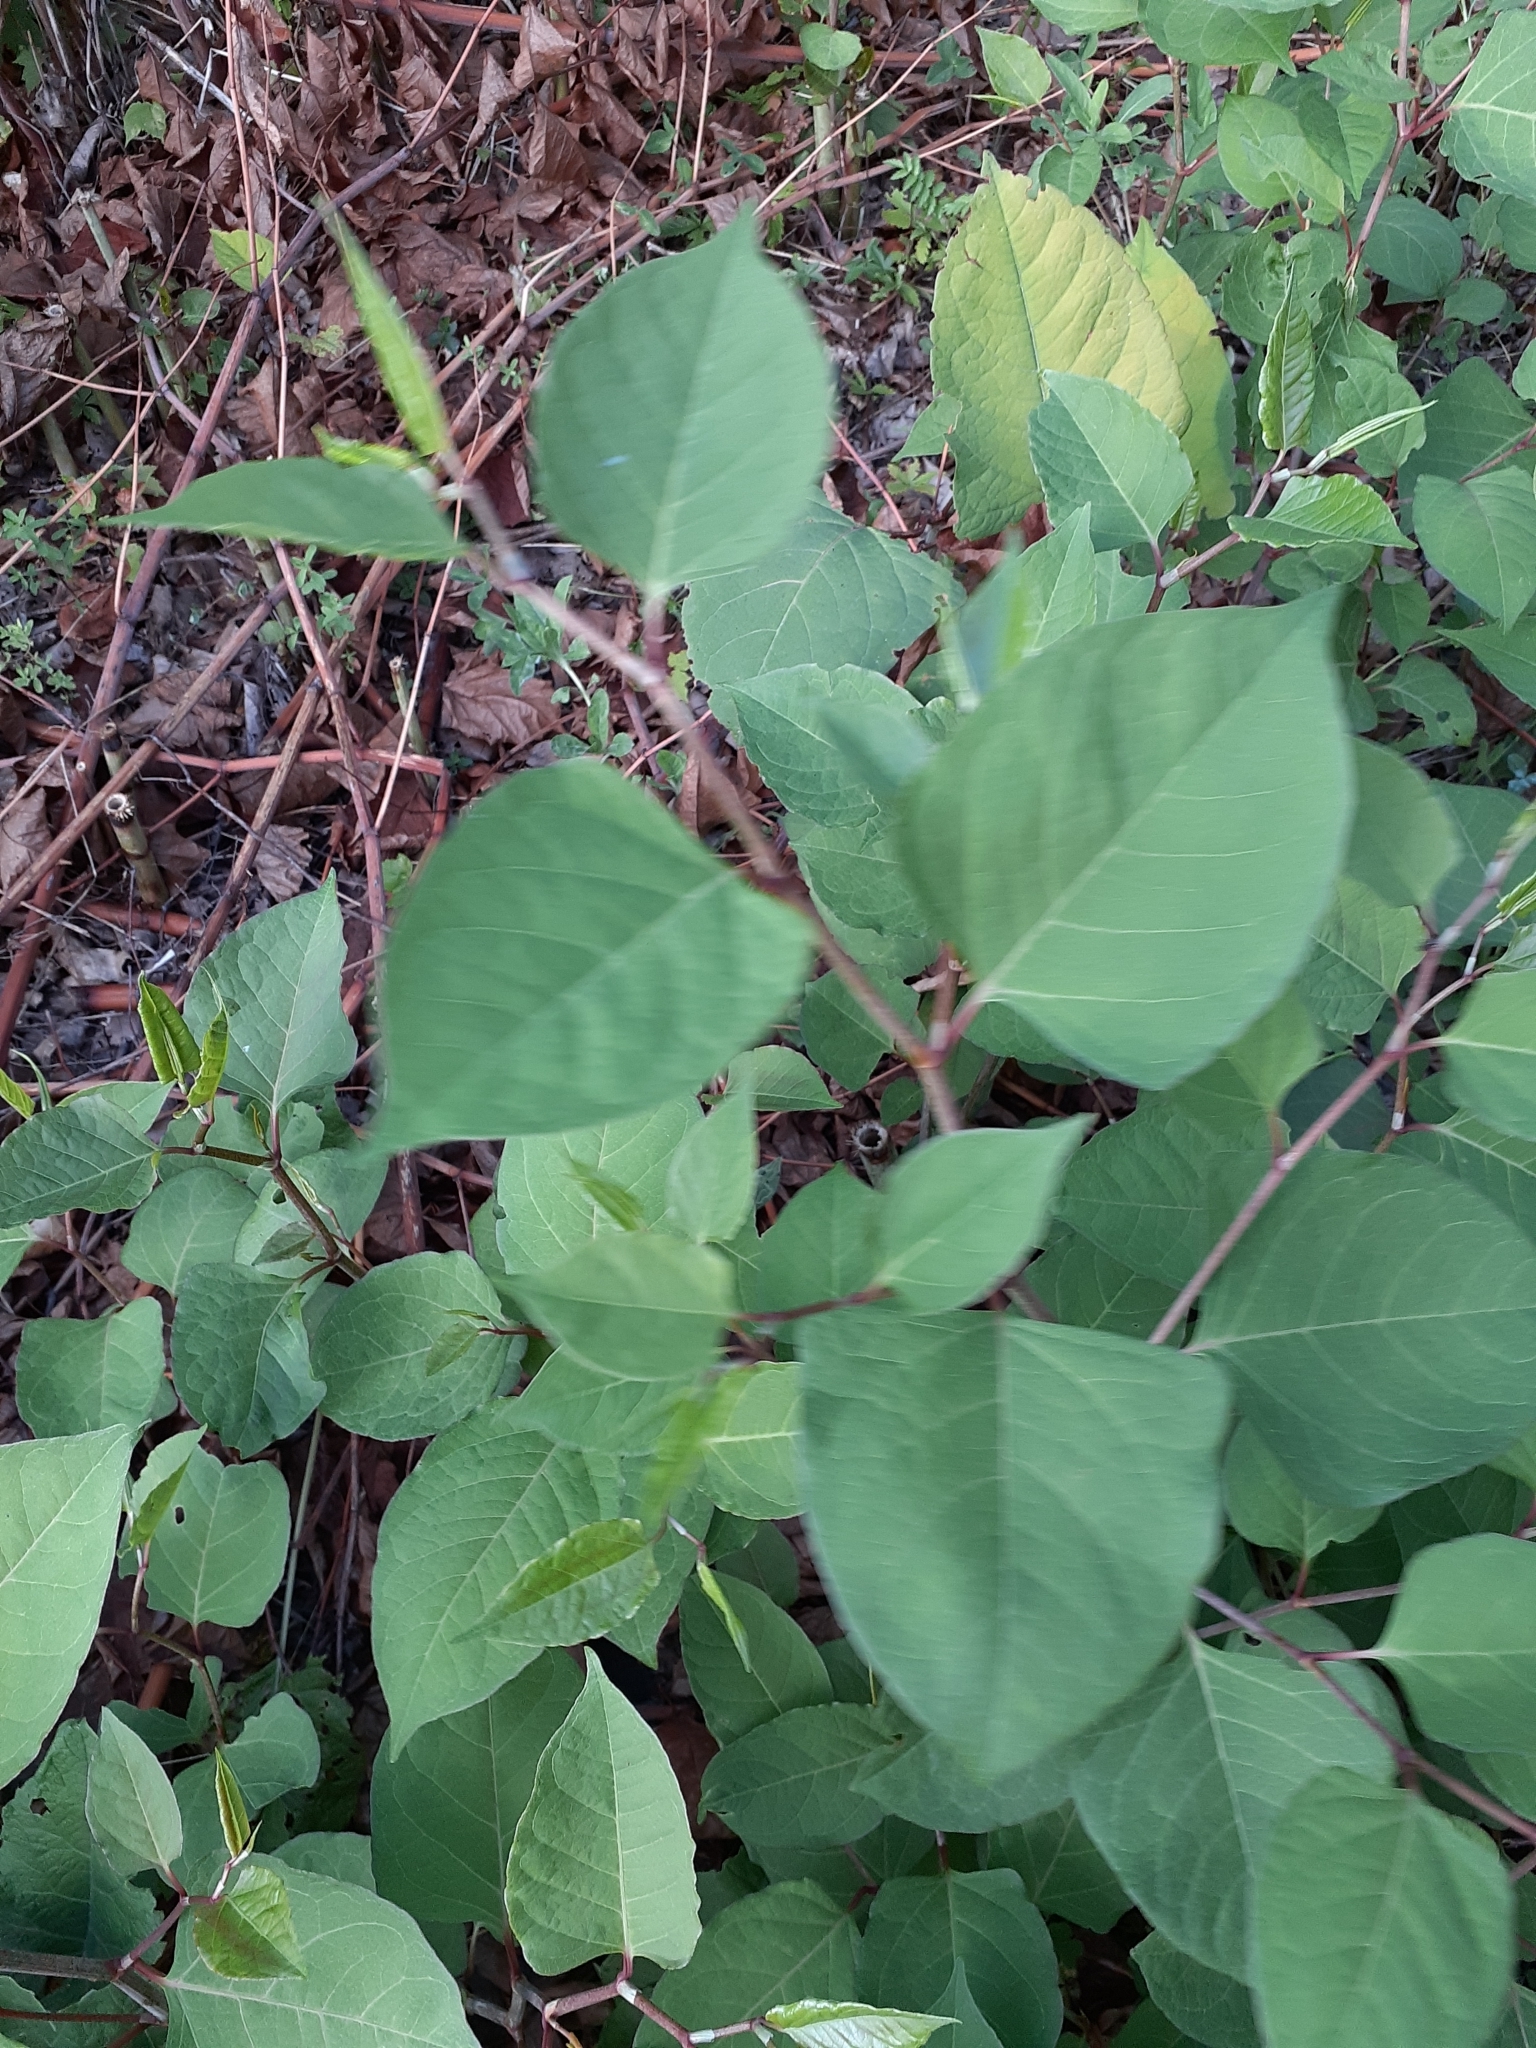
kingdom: Plantae
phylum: Tracheophyta
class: Magnoliopsida
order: Caryophyllales
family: Polygonaceae
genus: Reynoutria
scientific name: Reynoutria japonica
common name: Japanese knotweed
